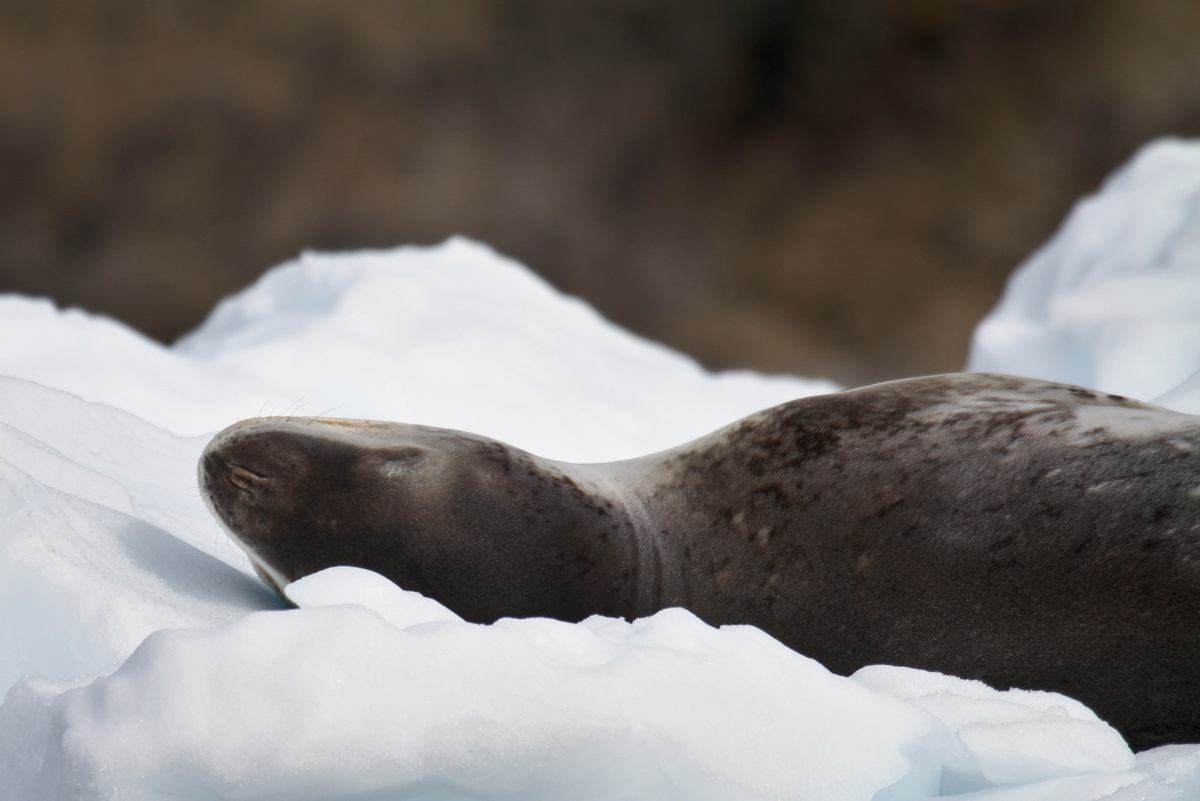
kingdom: Animalia
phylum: Chordata
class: Mammalia
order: Carnivora
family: Phocidae
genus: Hydrurga
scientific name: Hydrurga leptonyx
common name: Leopard seal
